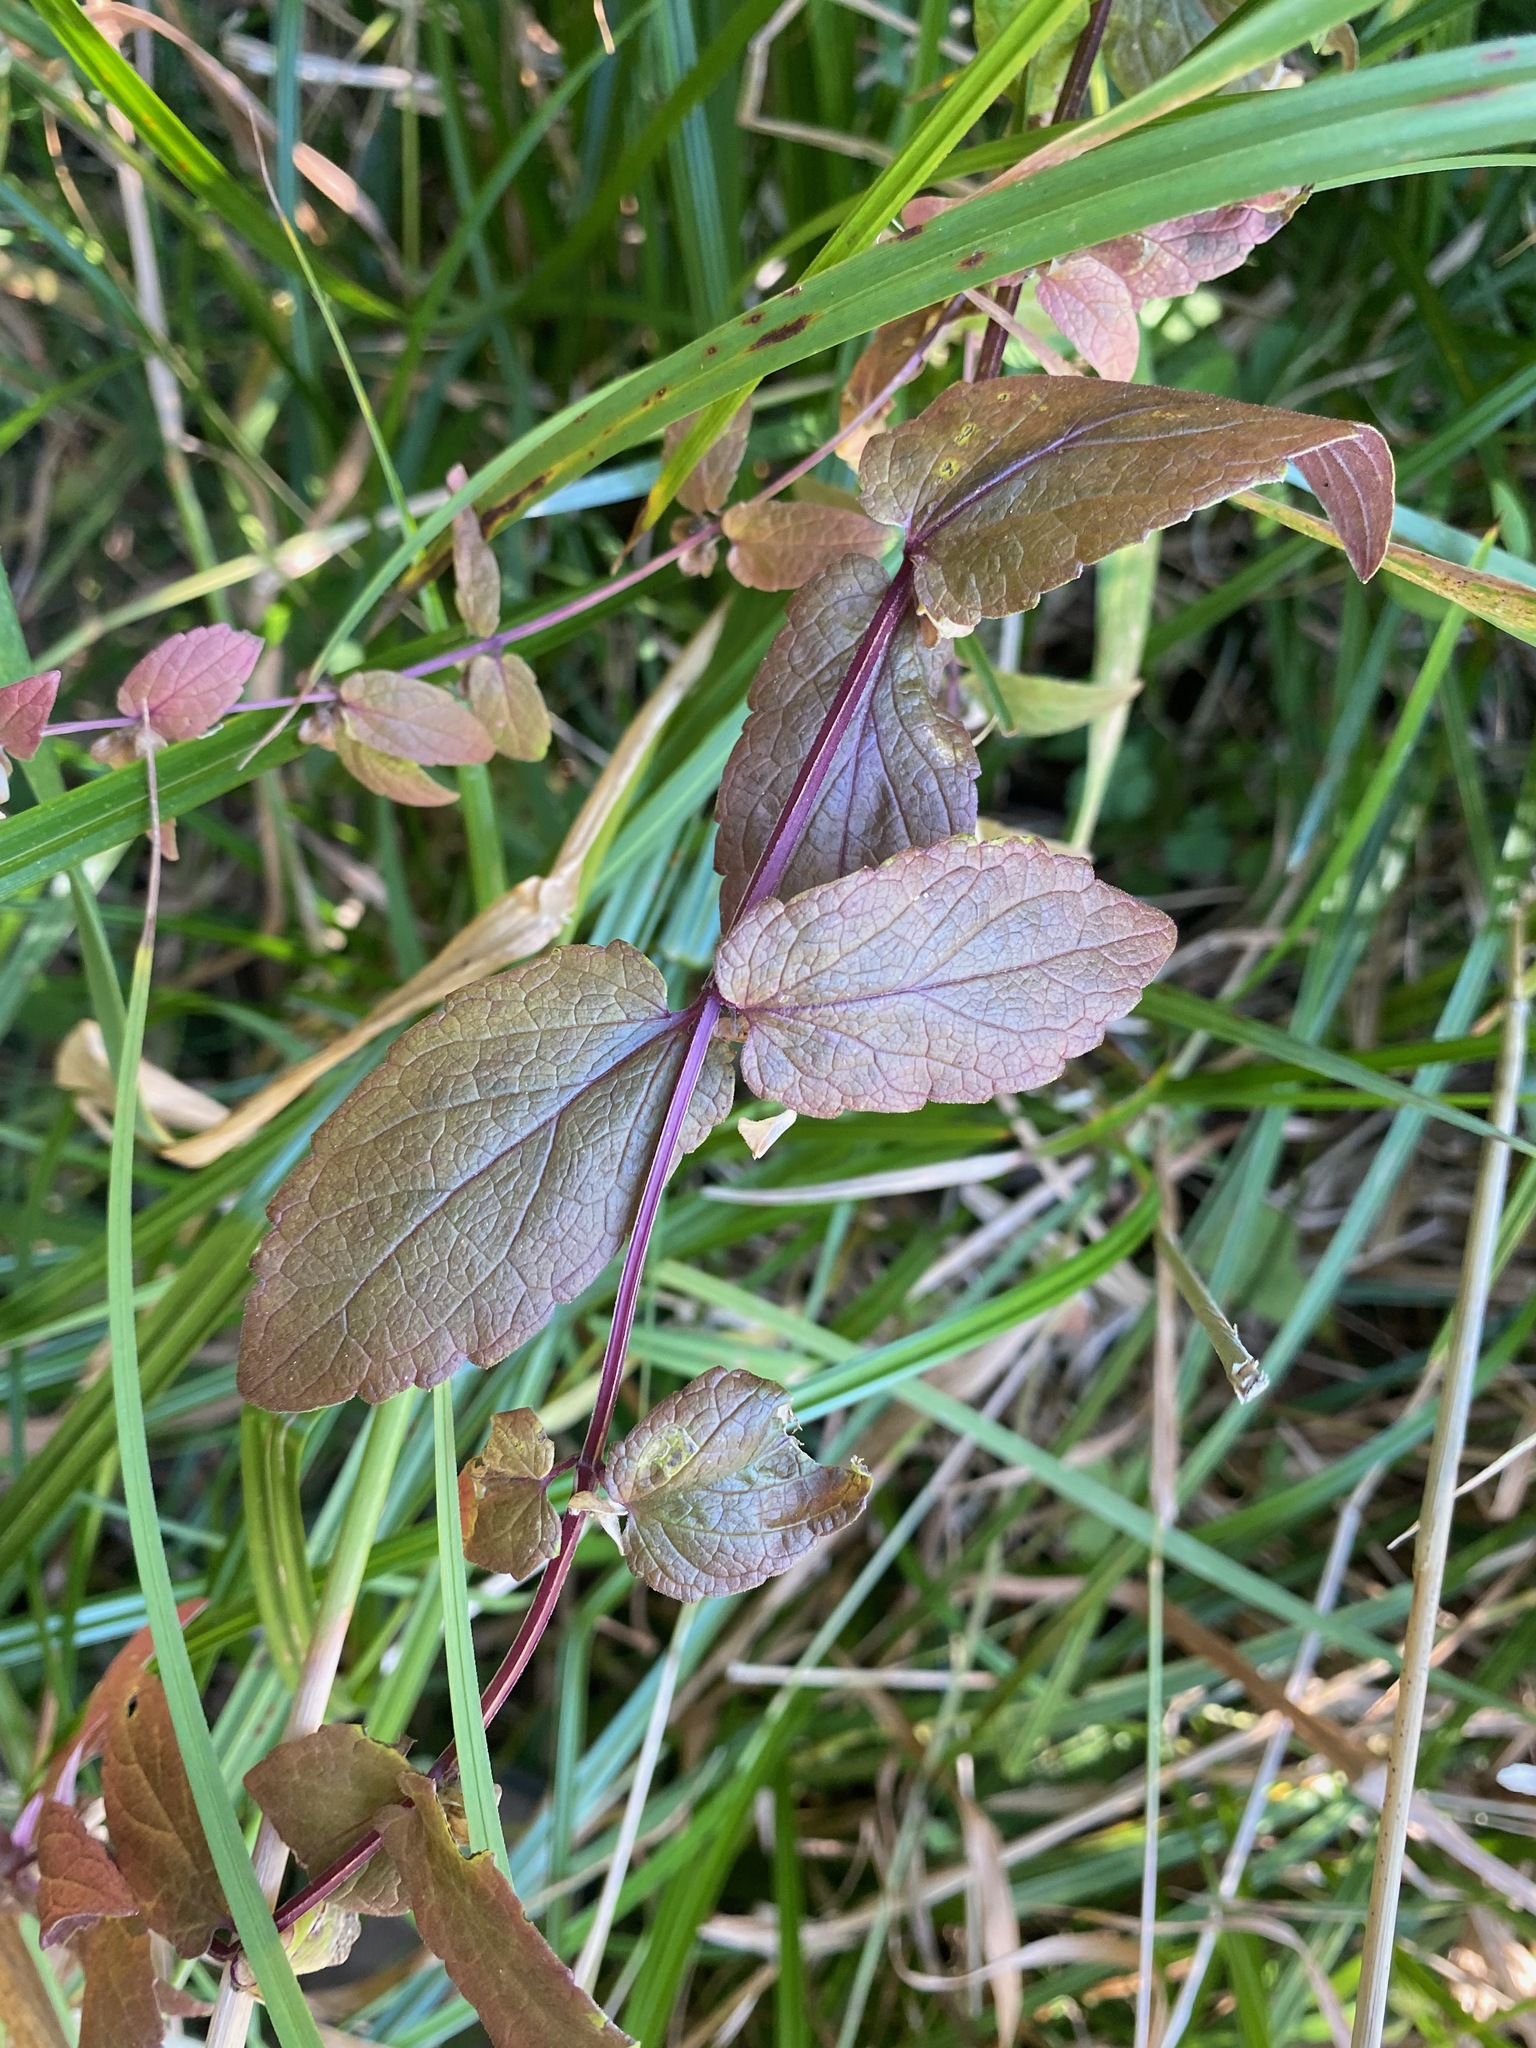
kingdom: Plantae
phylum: Tracheophyta
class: Magnoliopsida
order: Lamiales
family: Lamiaceae
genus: Scutellaria
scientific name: Scutellaria galericulata
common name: Skullcap
